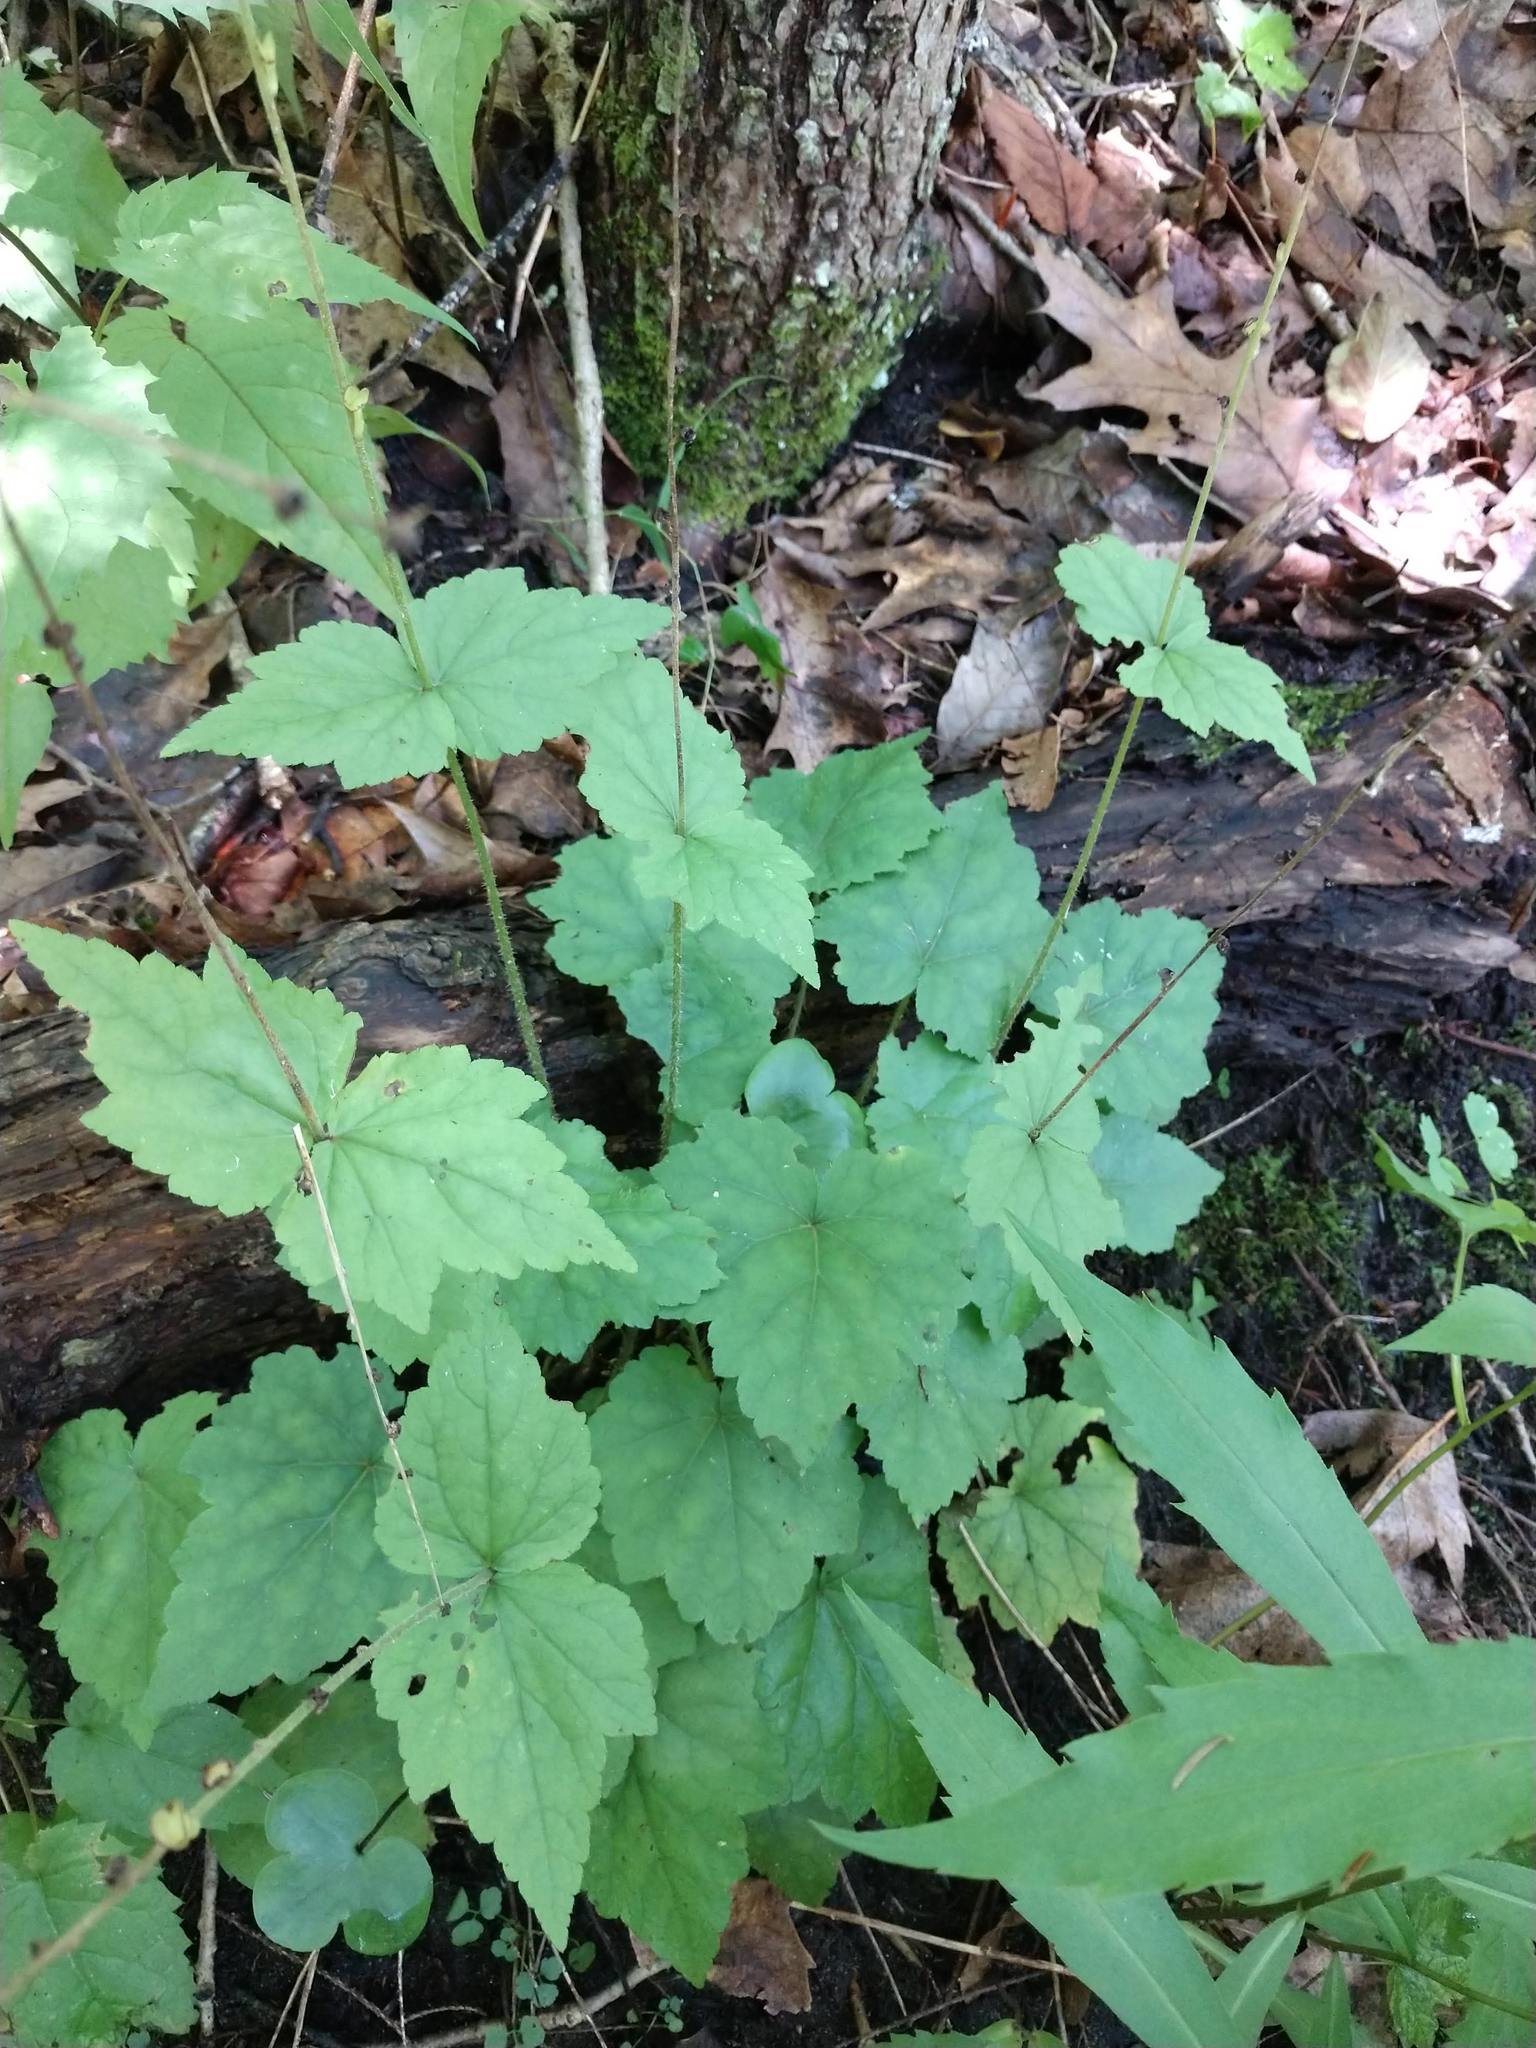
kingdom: Plantae
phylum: Tracheophyta
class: Magnoliopsida
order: Saxifragales
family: Saxifragaceae
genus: Mitella
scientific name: Mitella diphylla
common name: Coolwort
